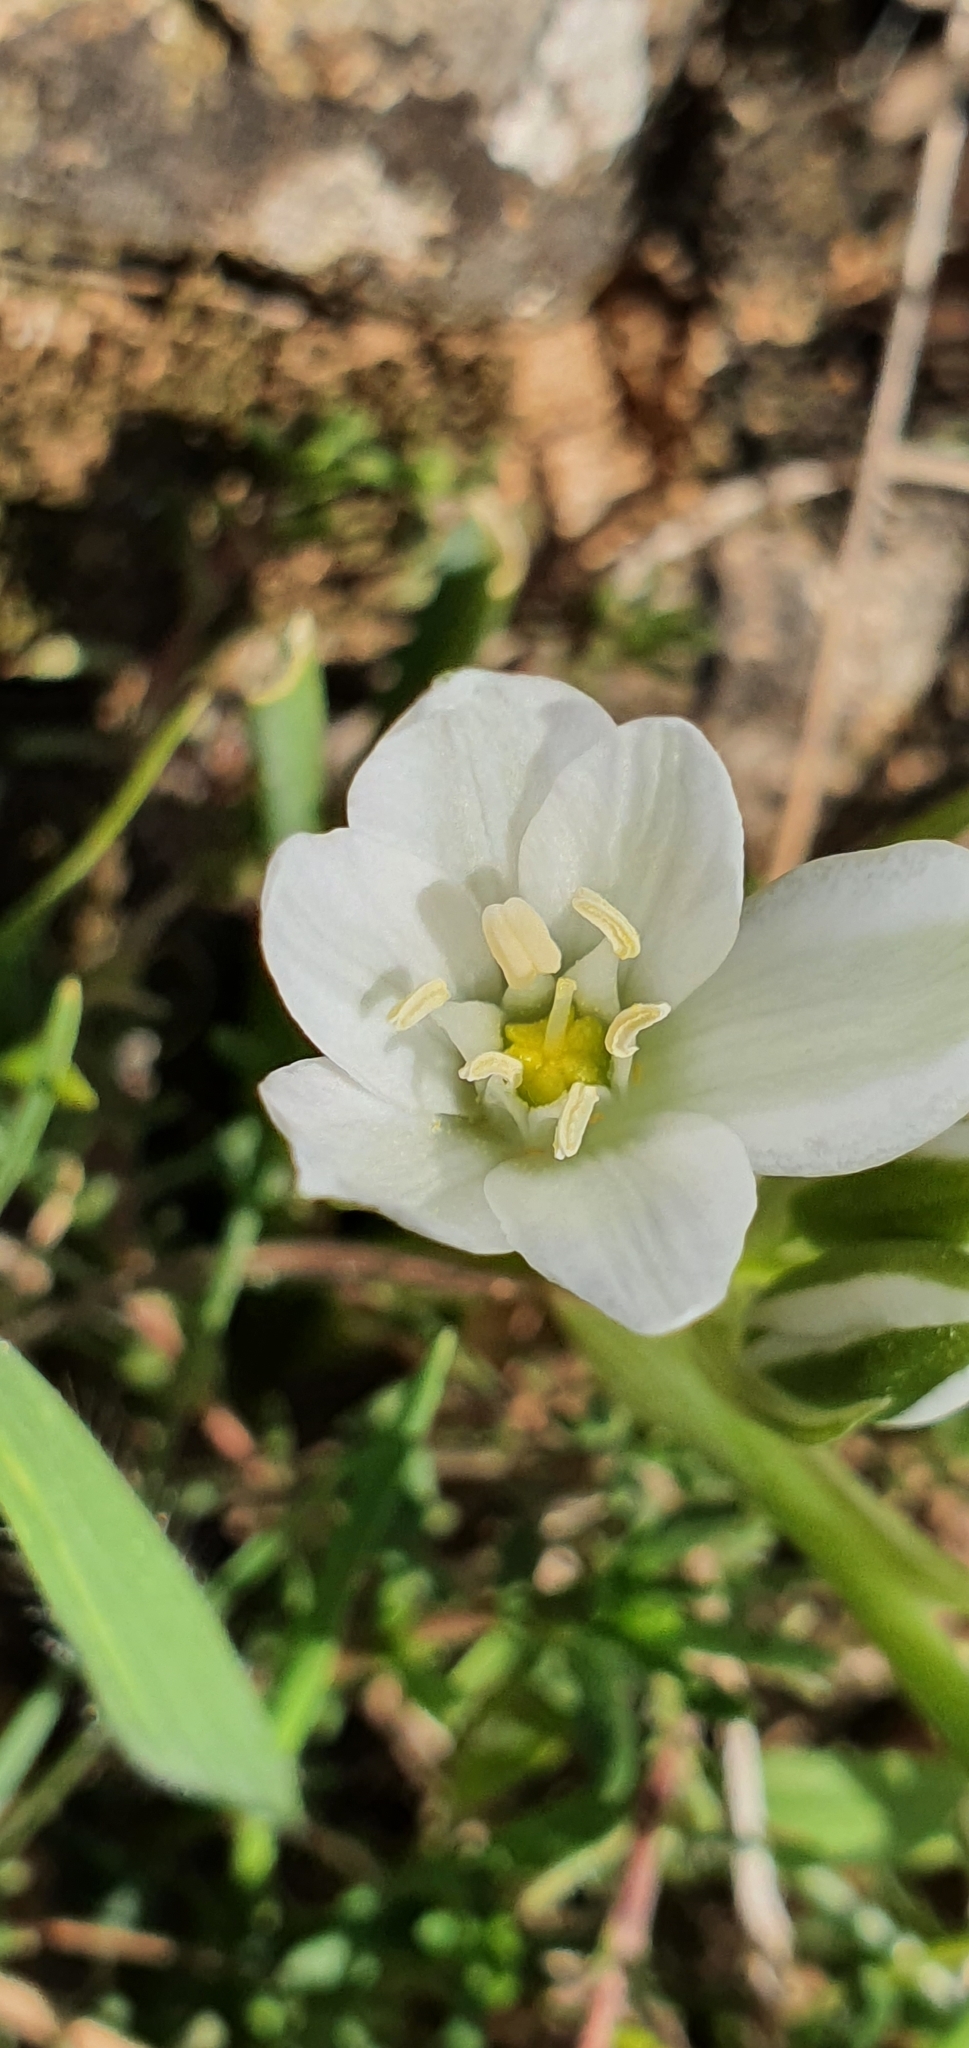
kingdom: Plantae
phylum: Tracheophyta
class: Liliopsida
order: Asparagales
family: Asparagaceae
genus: Ornithogalum
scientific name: Ornithogalum baeticum
